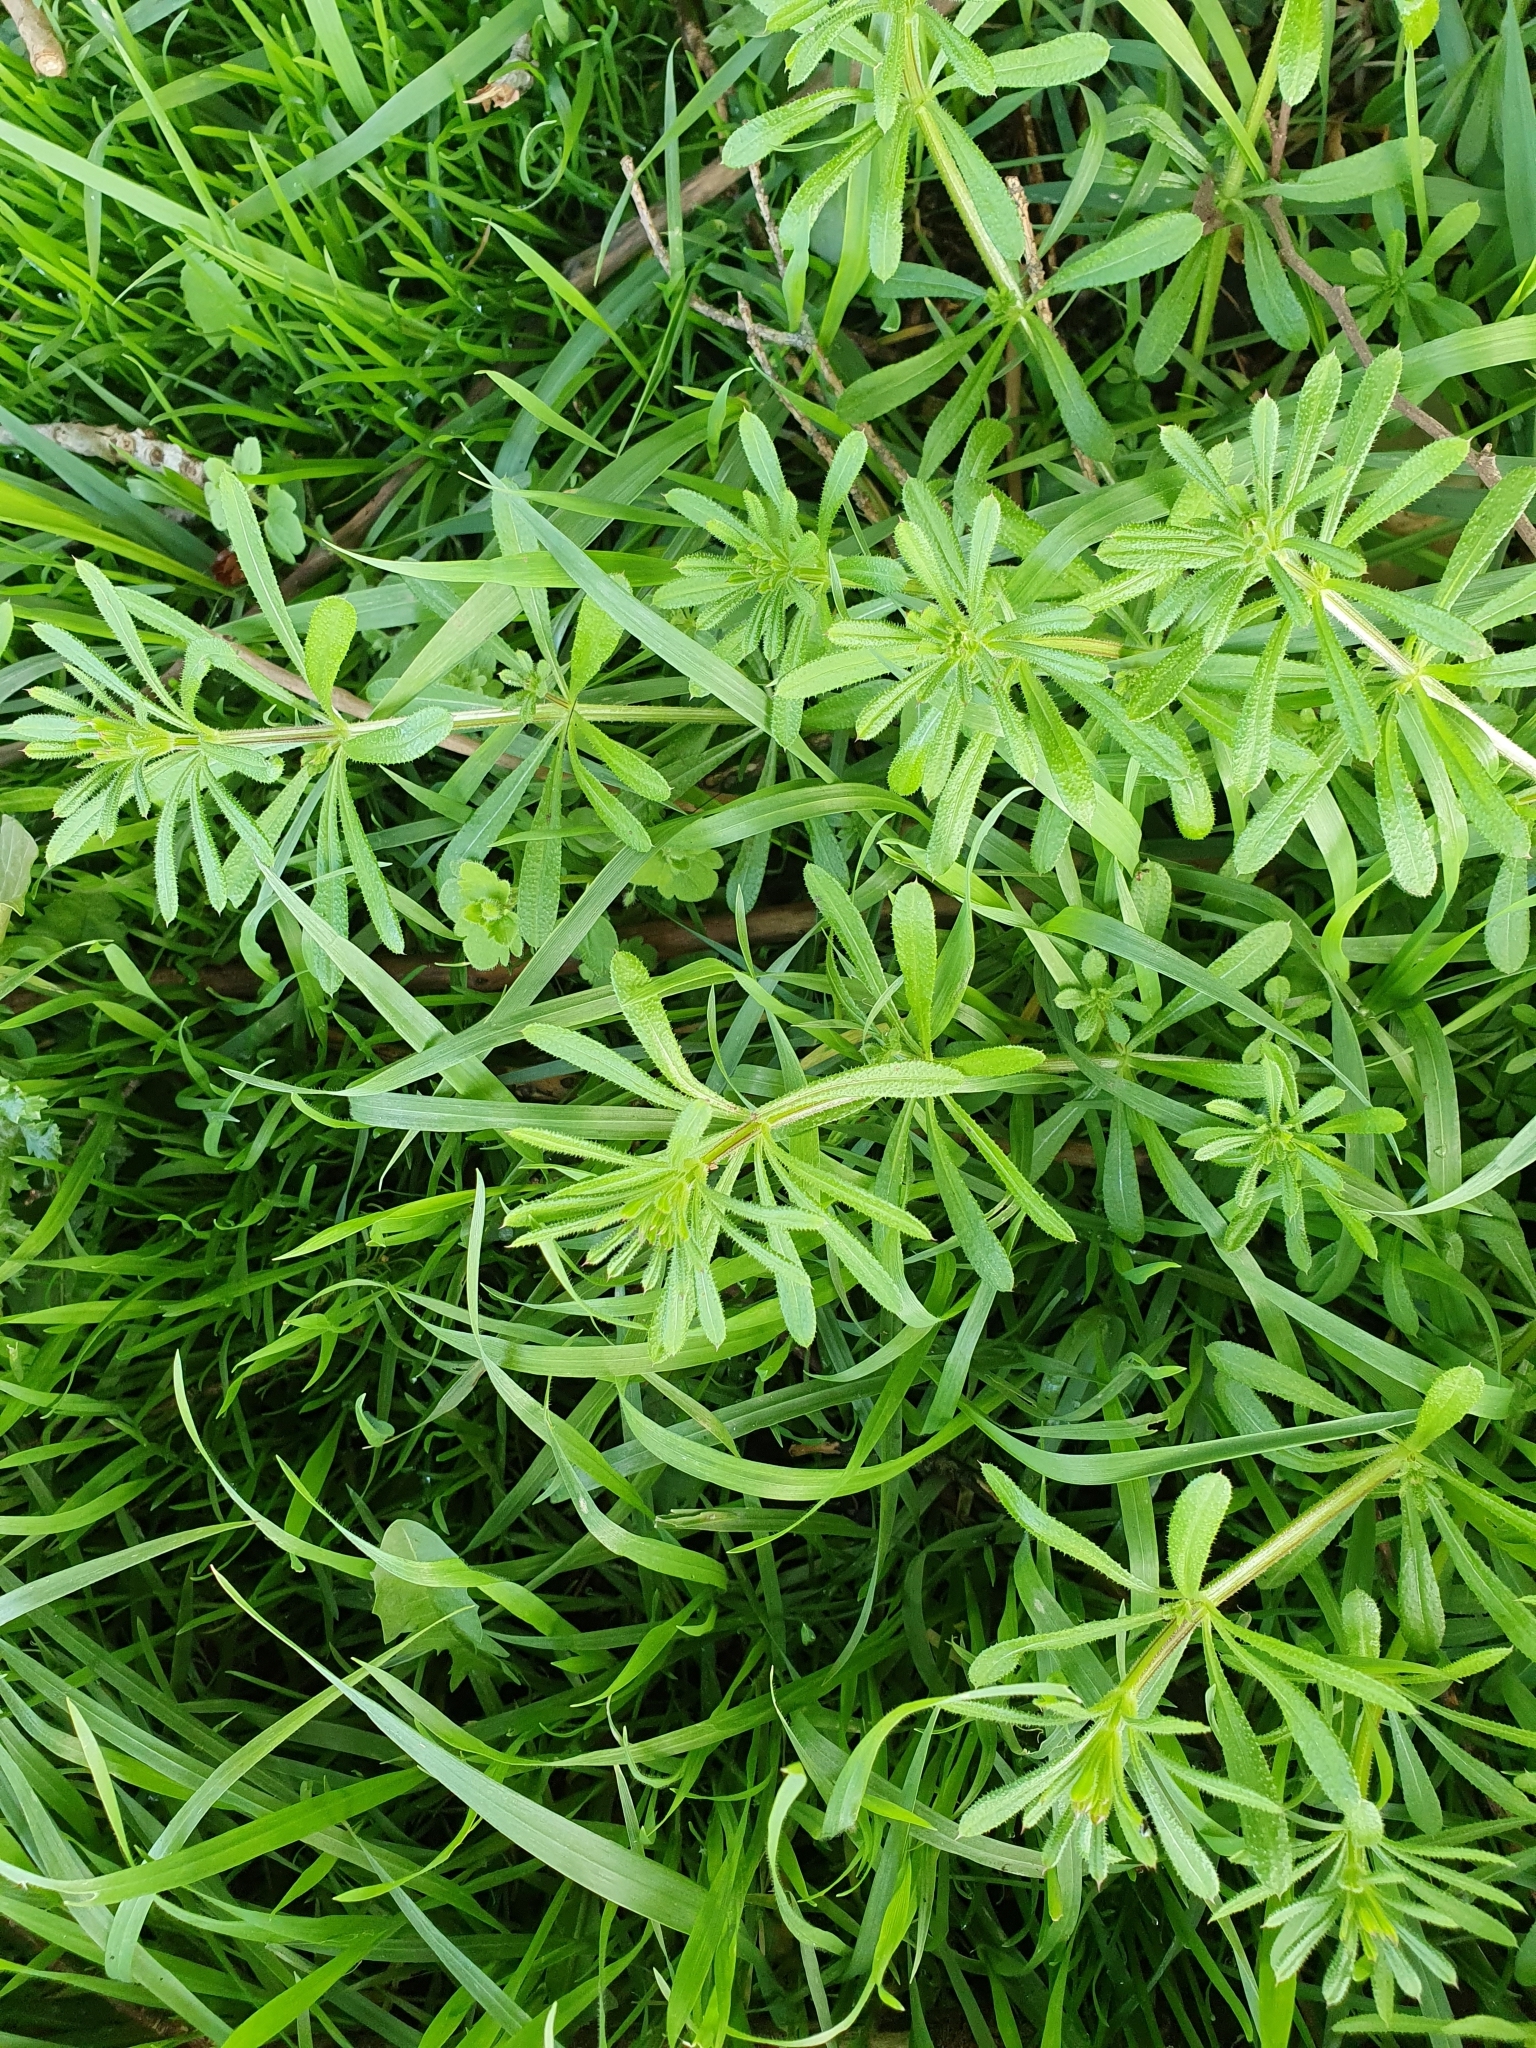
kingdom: Plantae
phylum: Tracheophyta
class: Magnoliopsida
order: Gentianales
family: Rubiaceae
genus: Galium
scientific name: Galium aparine
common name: Cleavers
